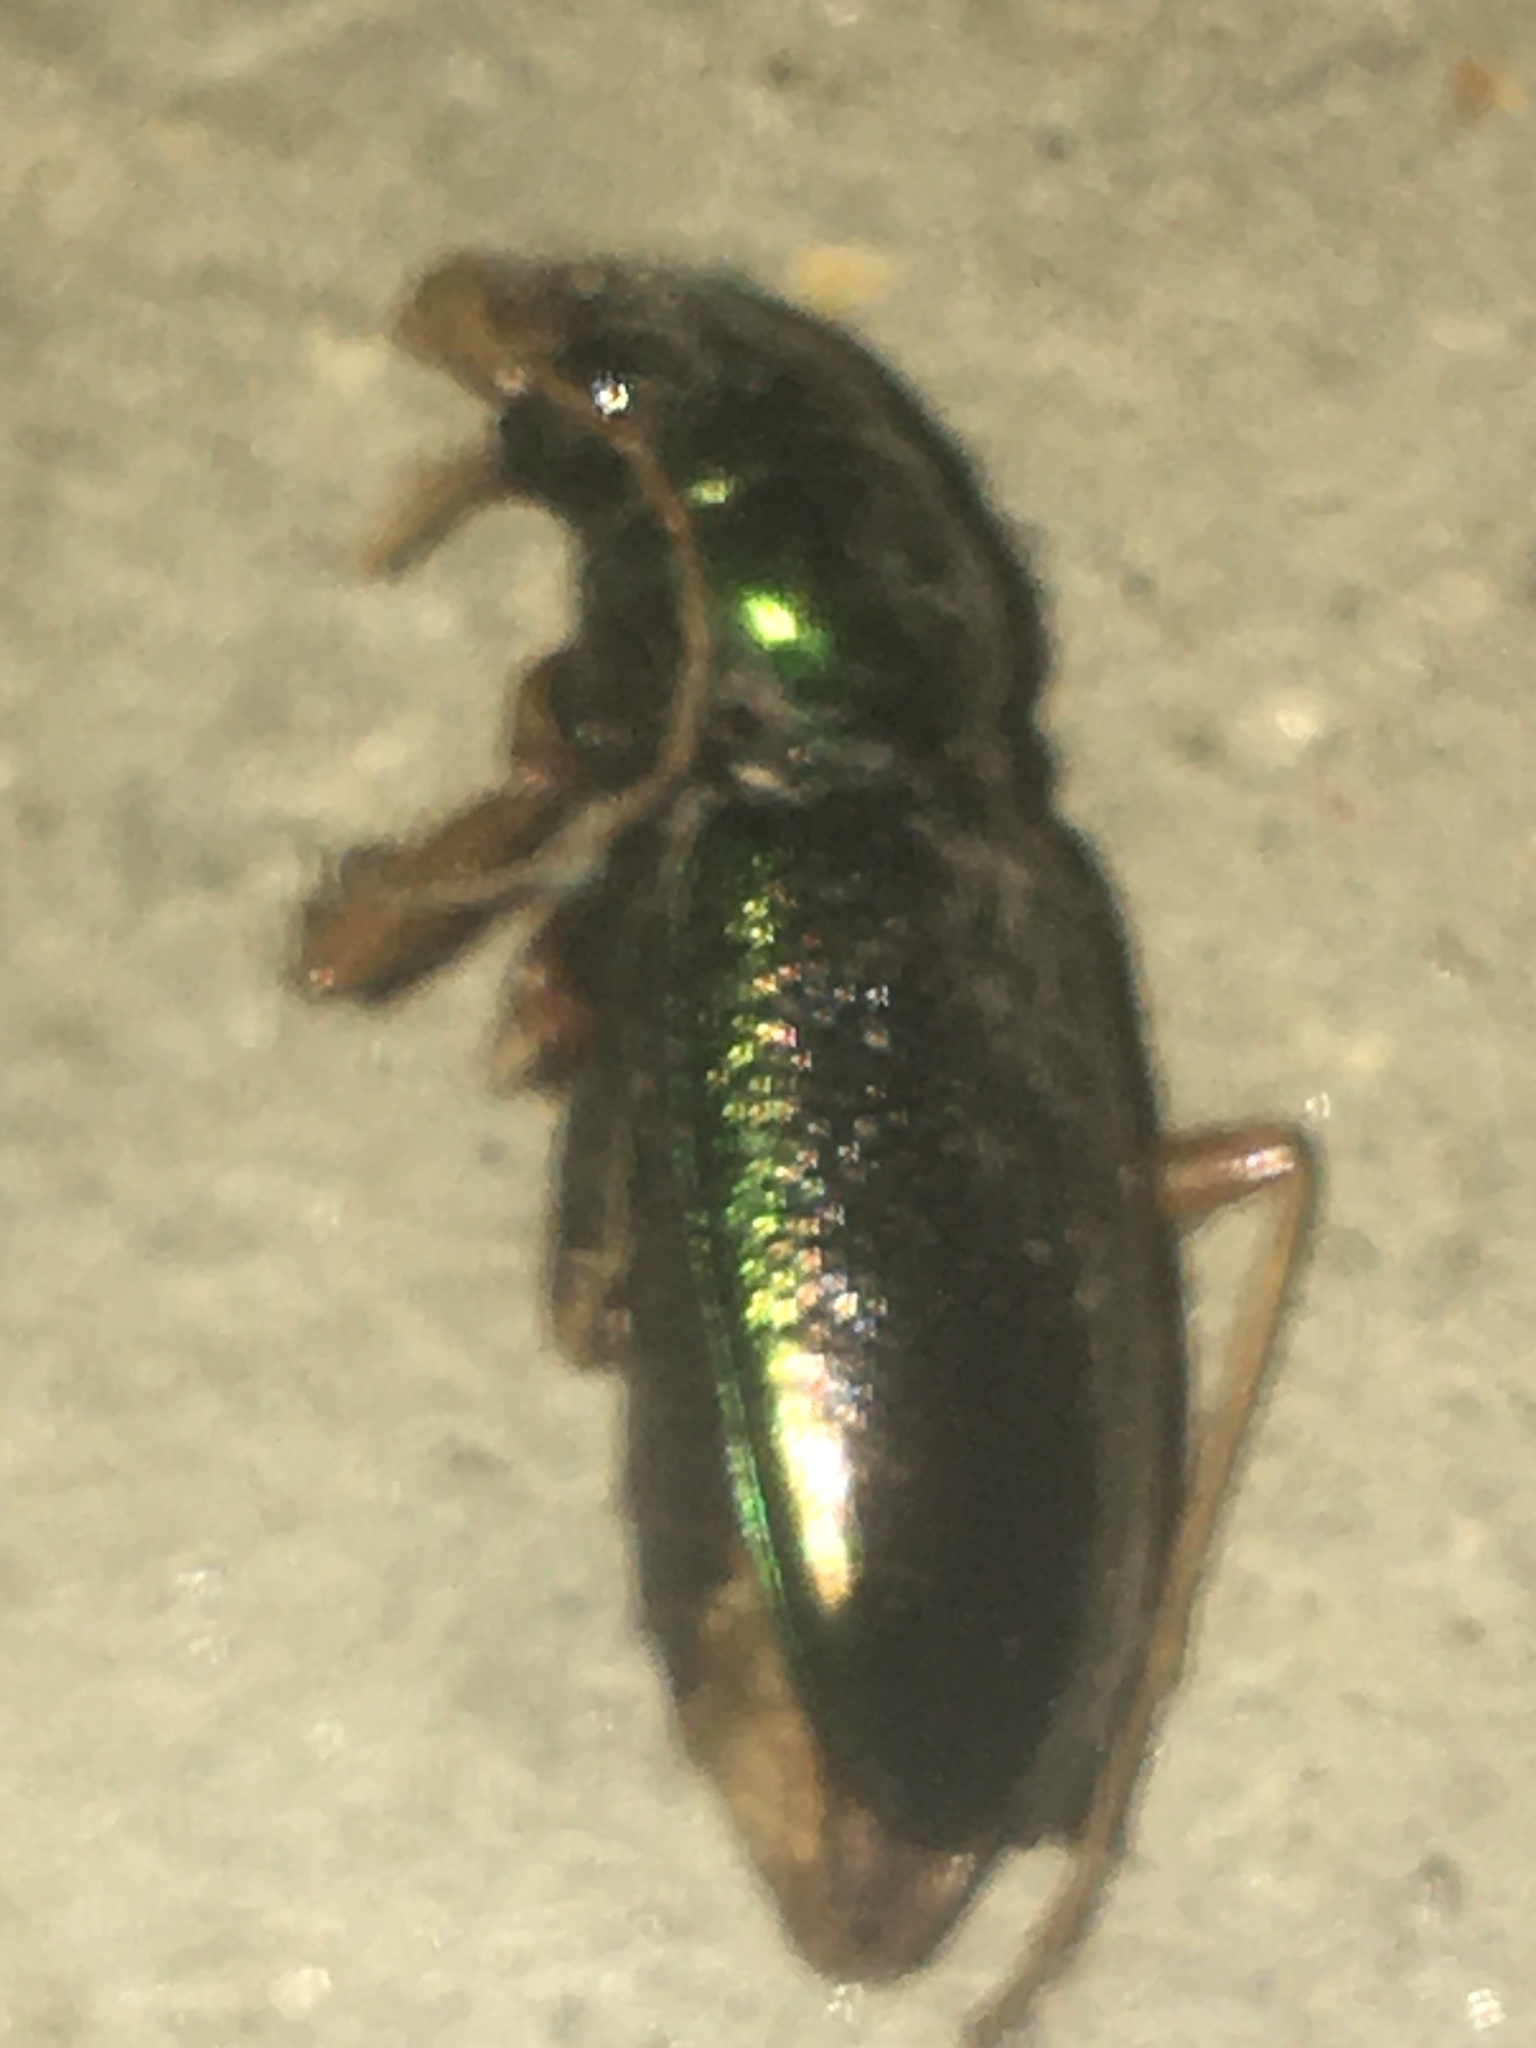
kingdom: Animalia
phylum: Arthropoda
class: Insecta
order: Coleoptera
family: Carabidae
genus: Tetracha
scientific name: Tetracha virginica
